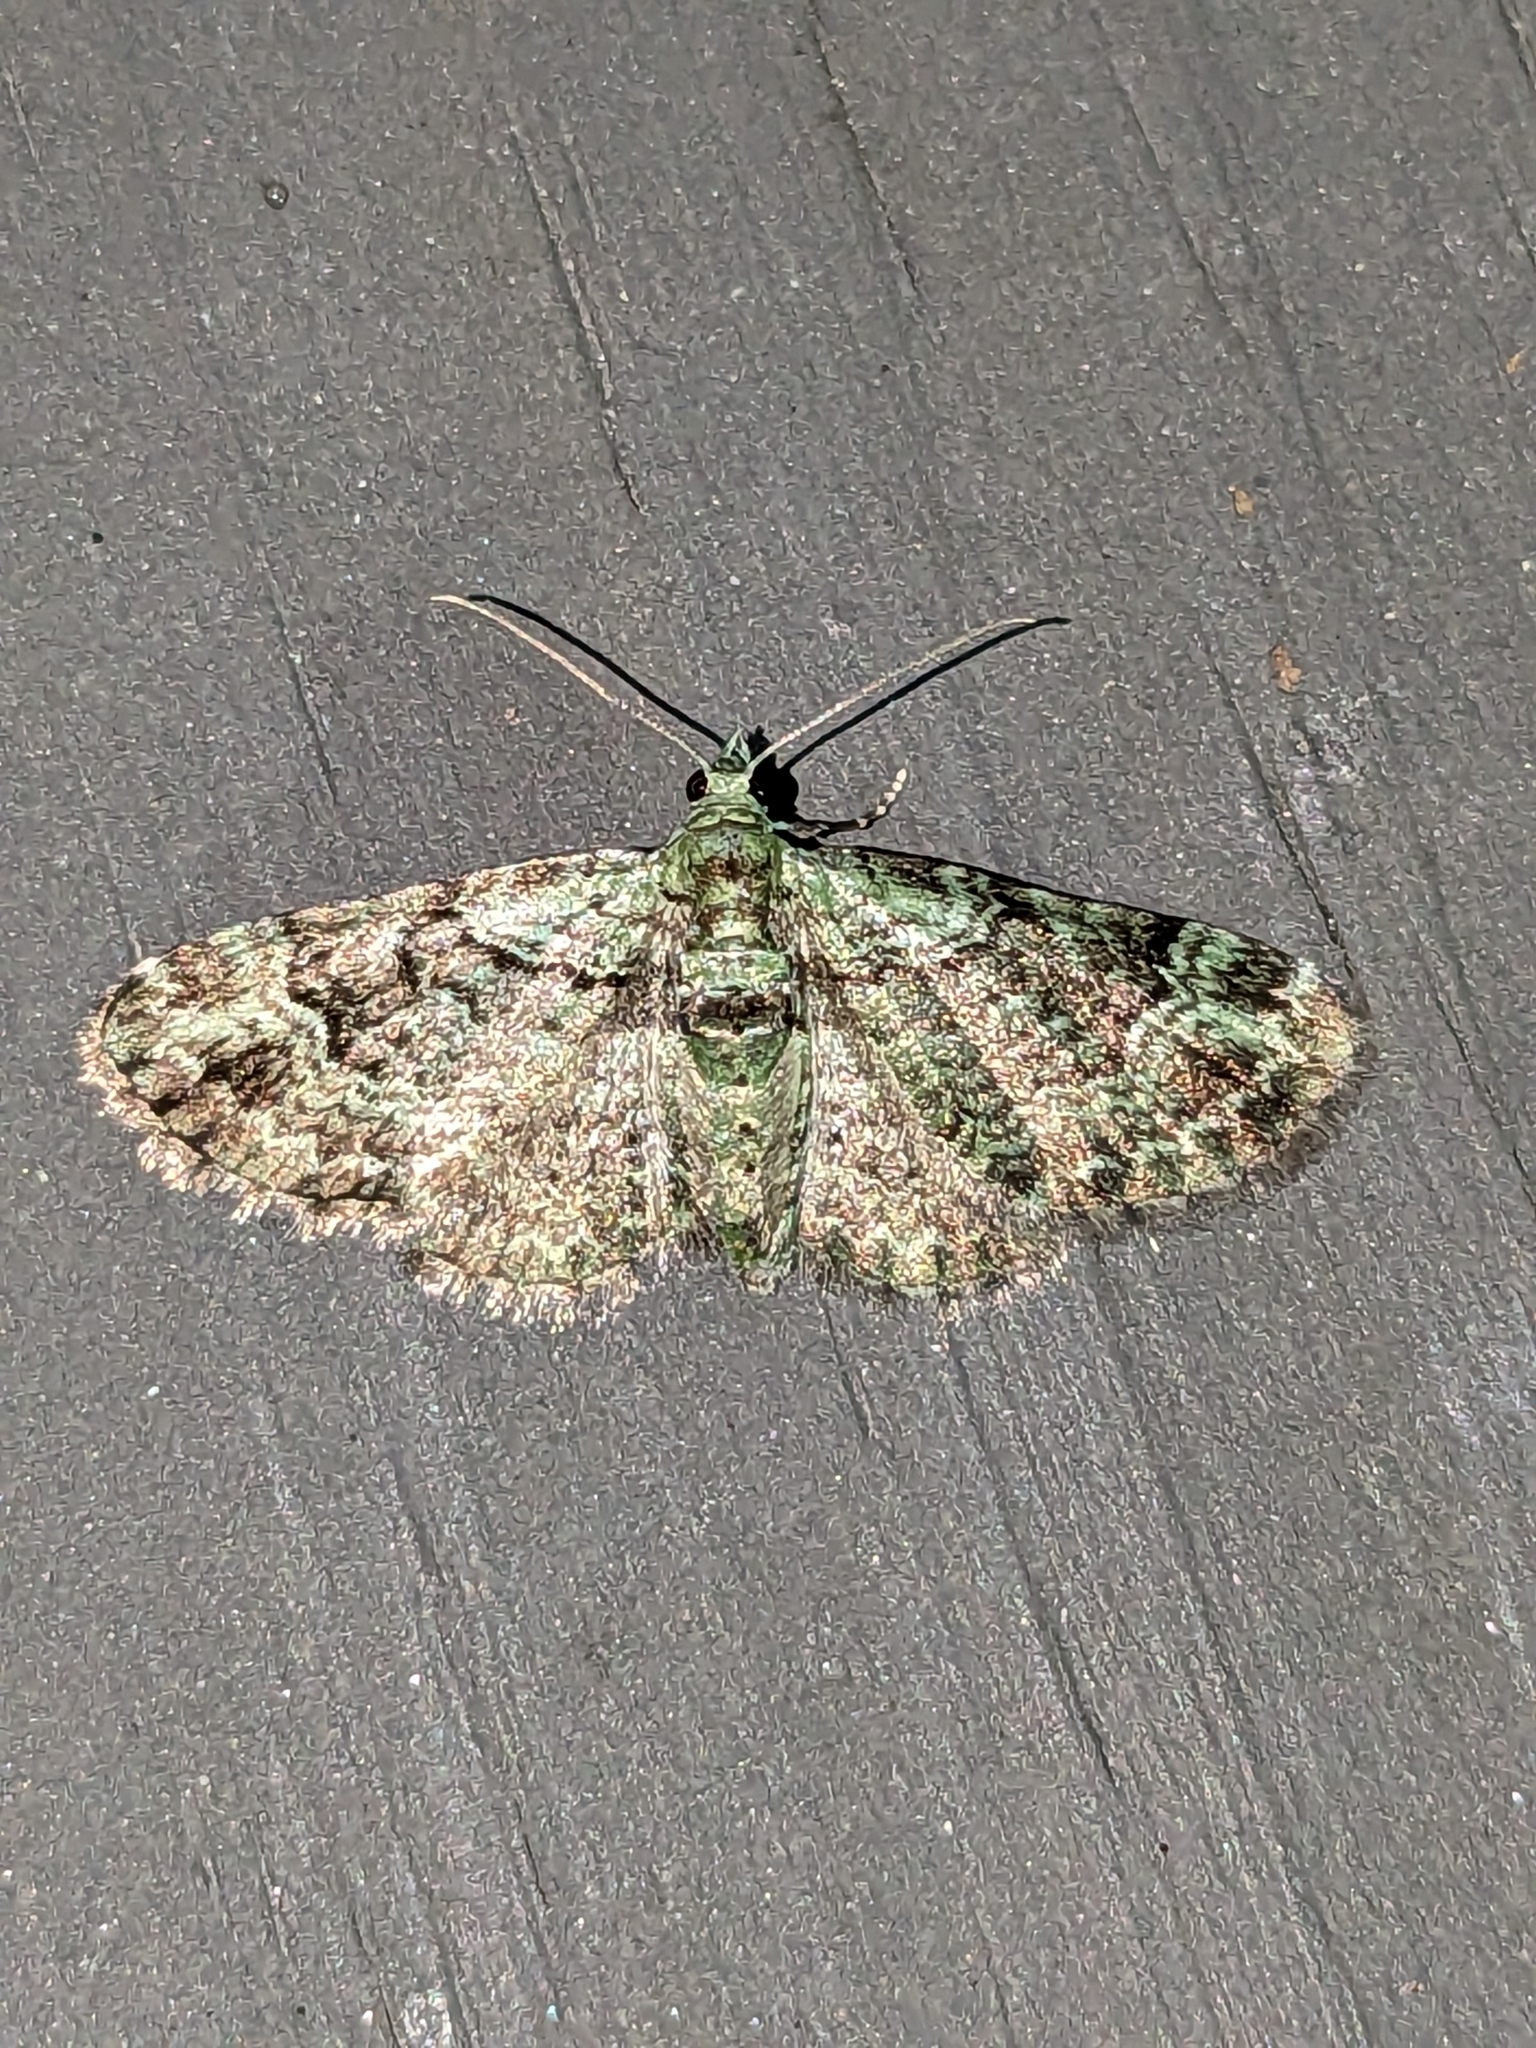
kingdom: Animalia
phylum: Arthropoda
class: Insecta
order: Lepidoptera
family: Geometridae
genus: Pasiphila
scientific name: Pasiphila rectangulata
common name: Green pug
